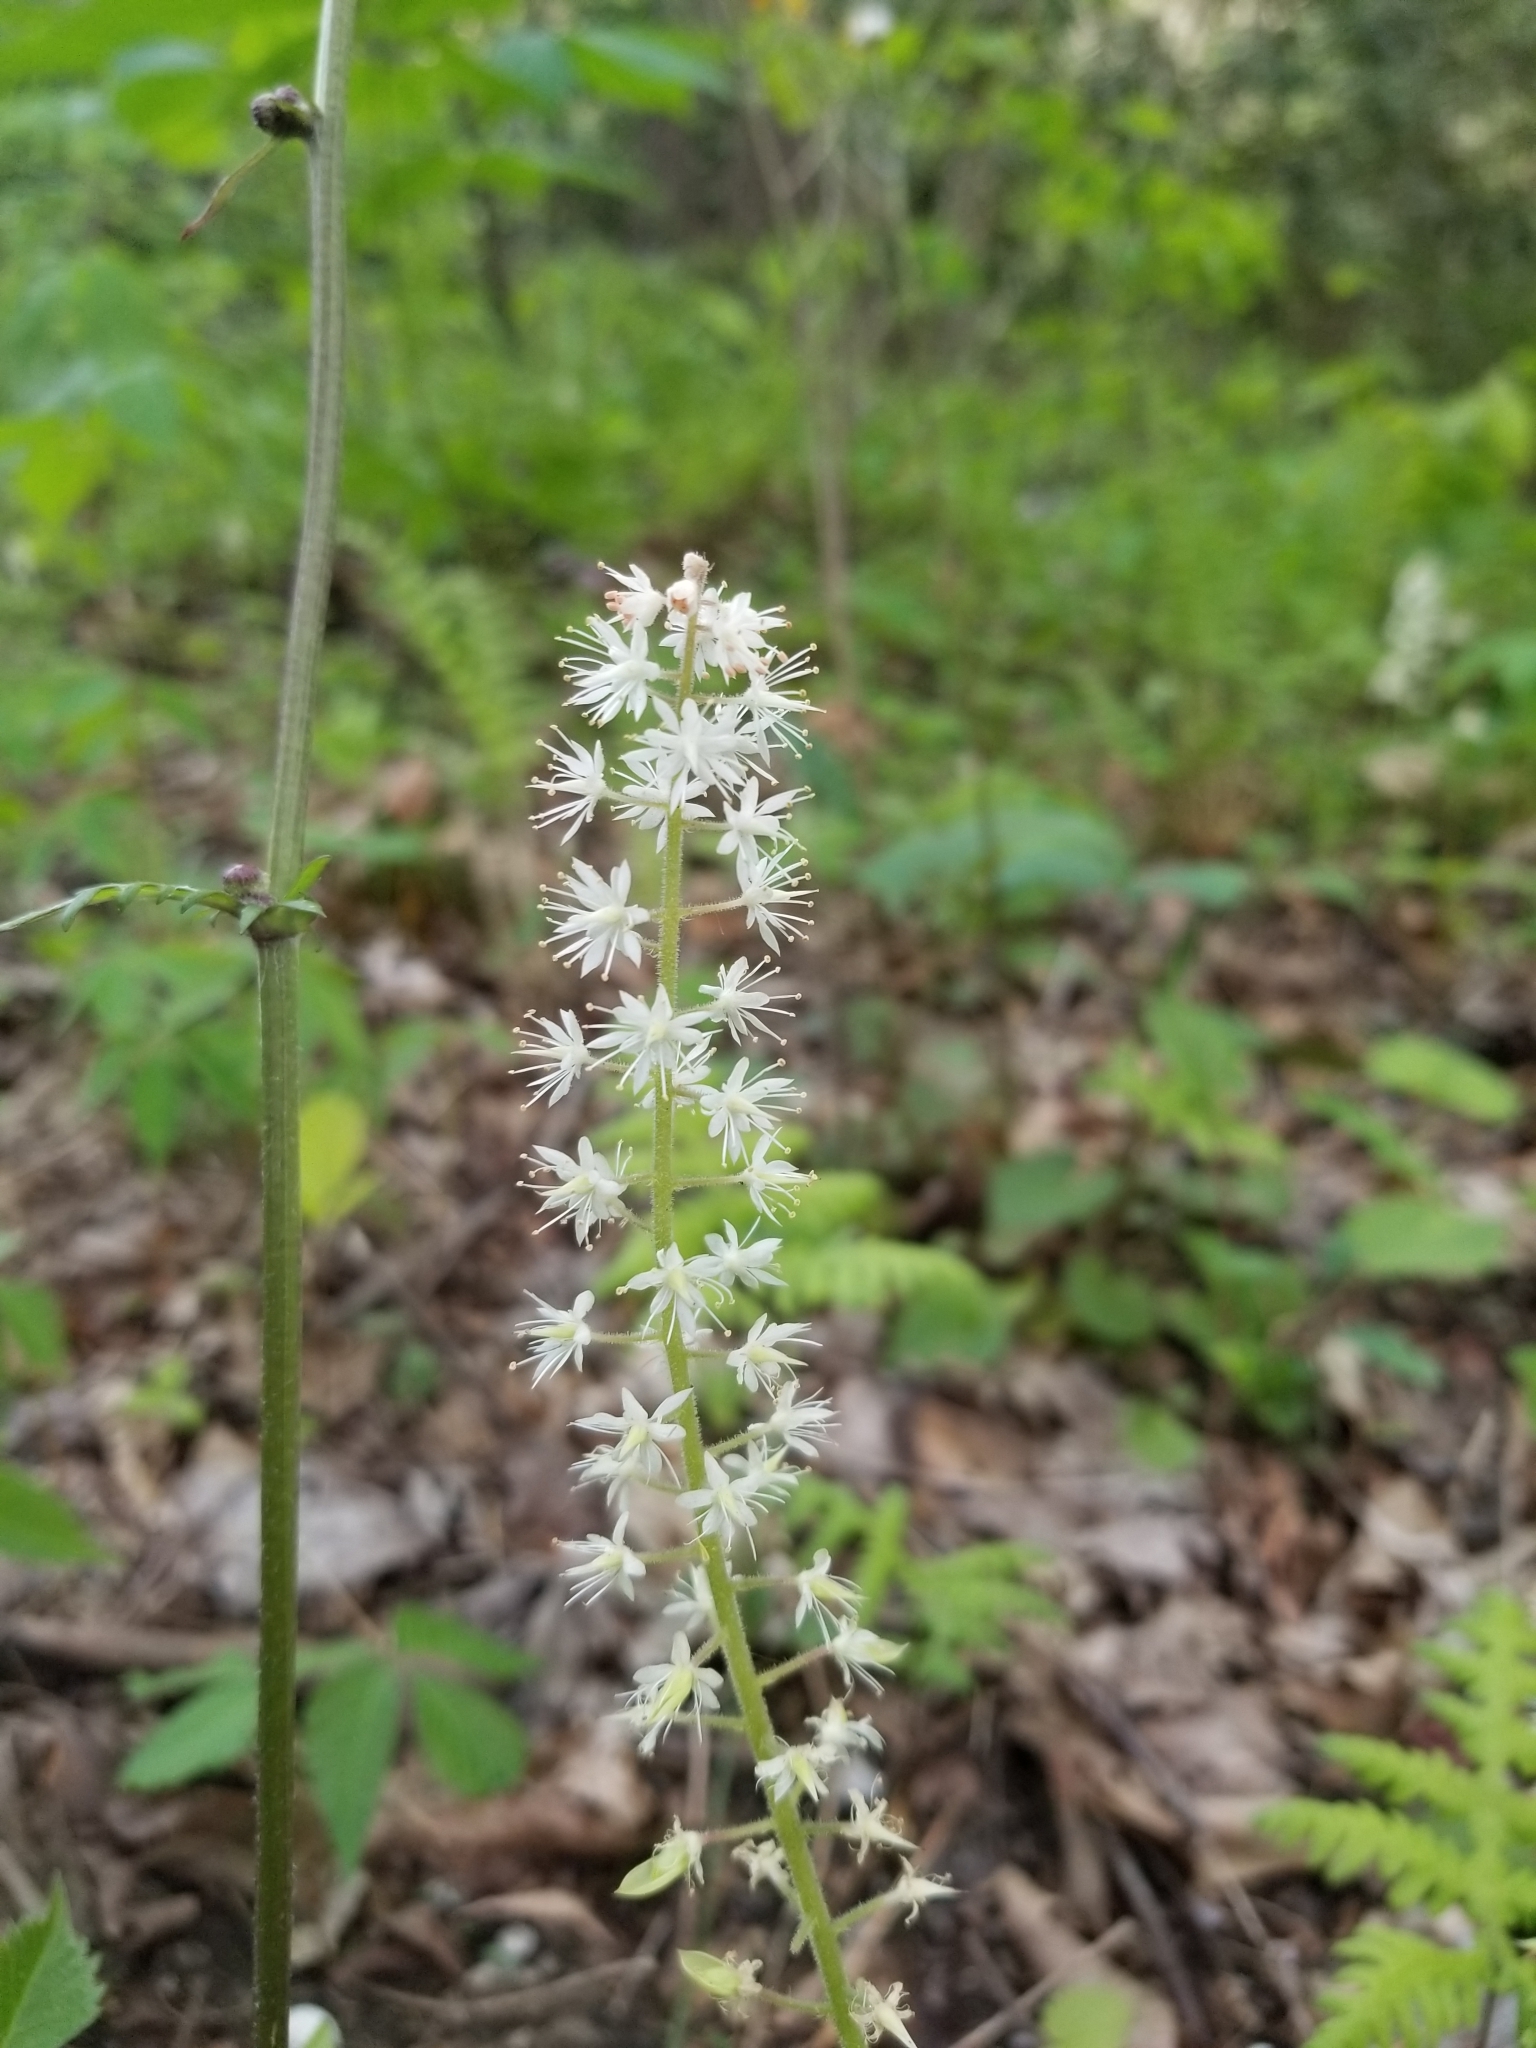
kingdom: Plantae
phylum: Tracheophyta
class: Magnoliopsida
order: Saxifragales
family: Saxifragaceae
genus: Tiarella
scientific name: Tiarella stolonifera
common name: Stoloniferous foamflower
